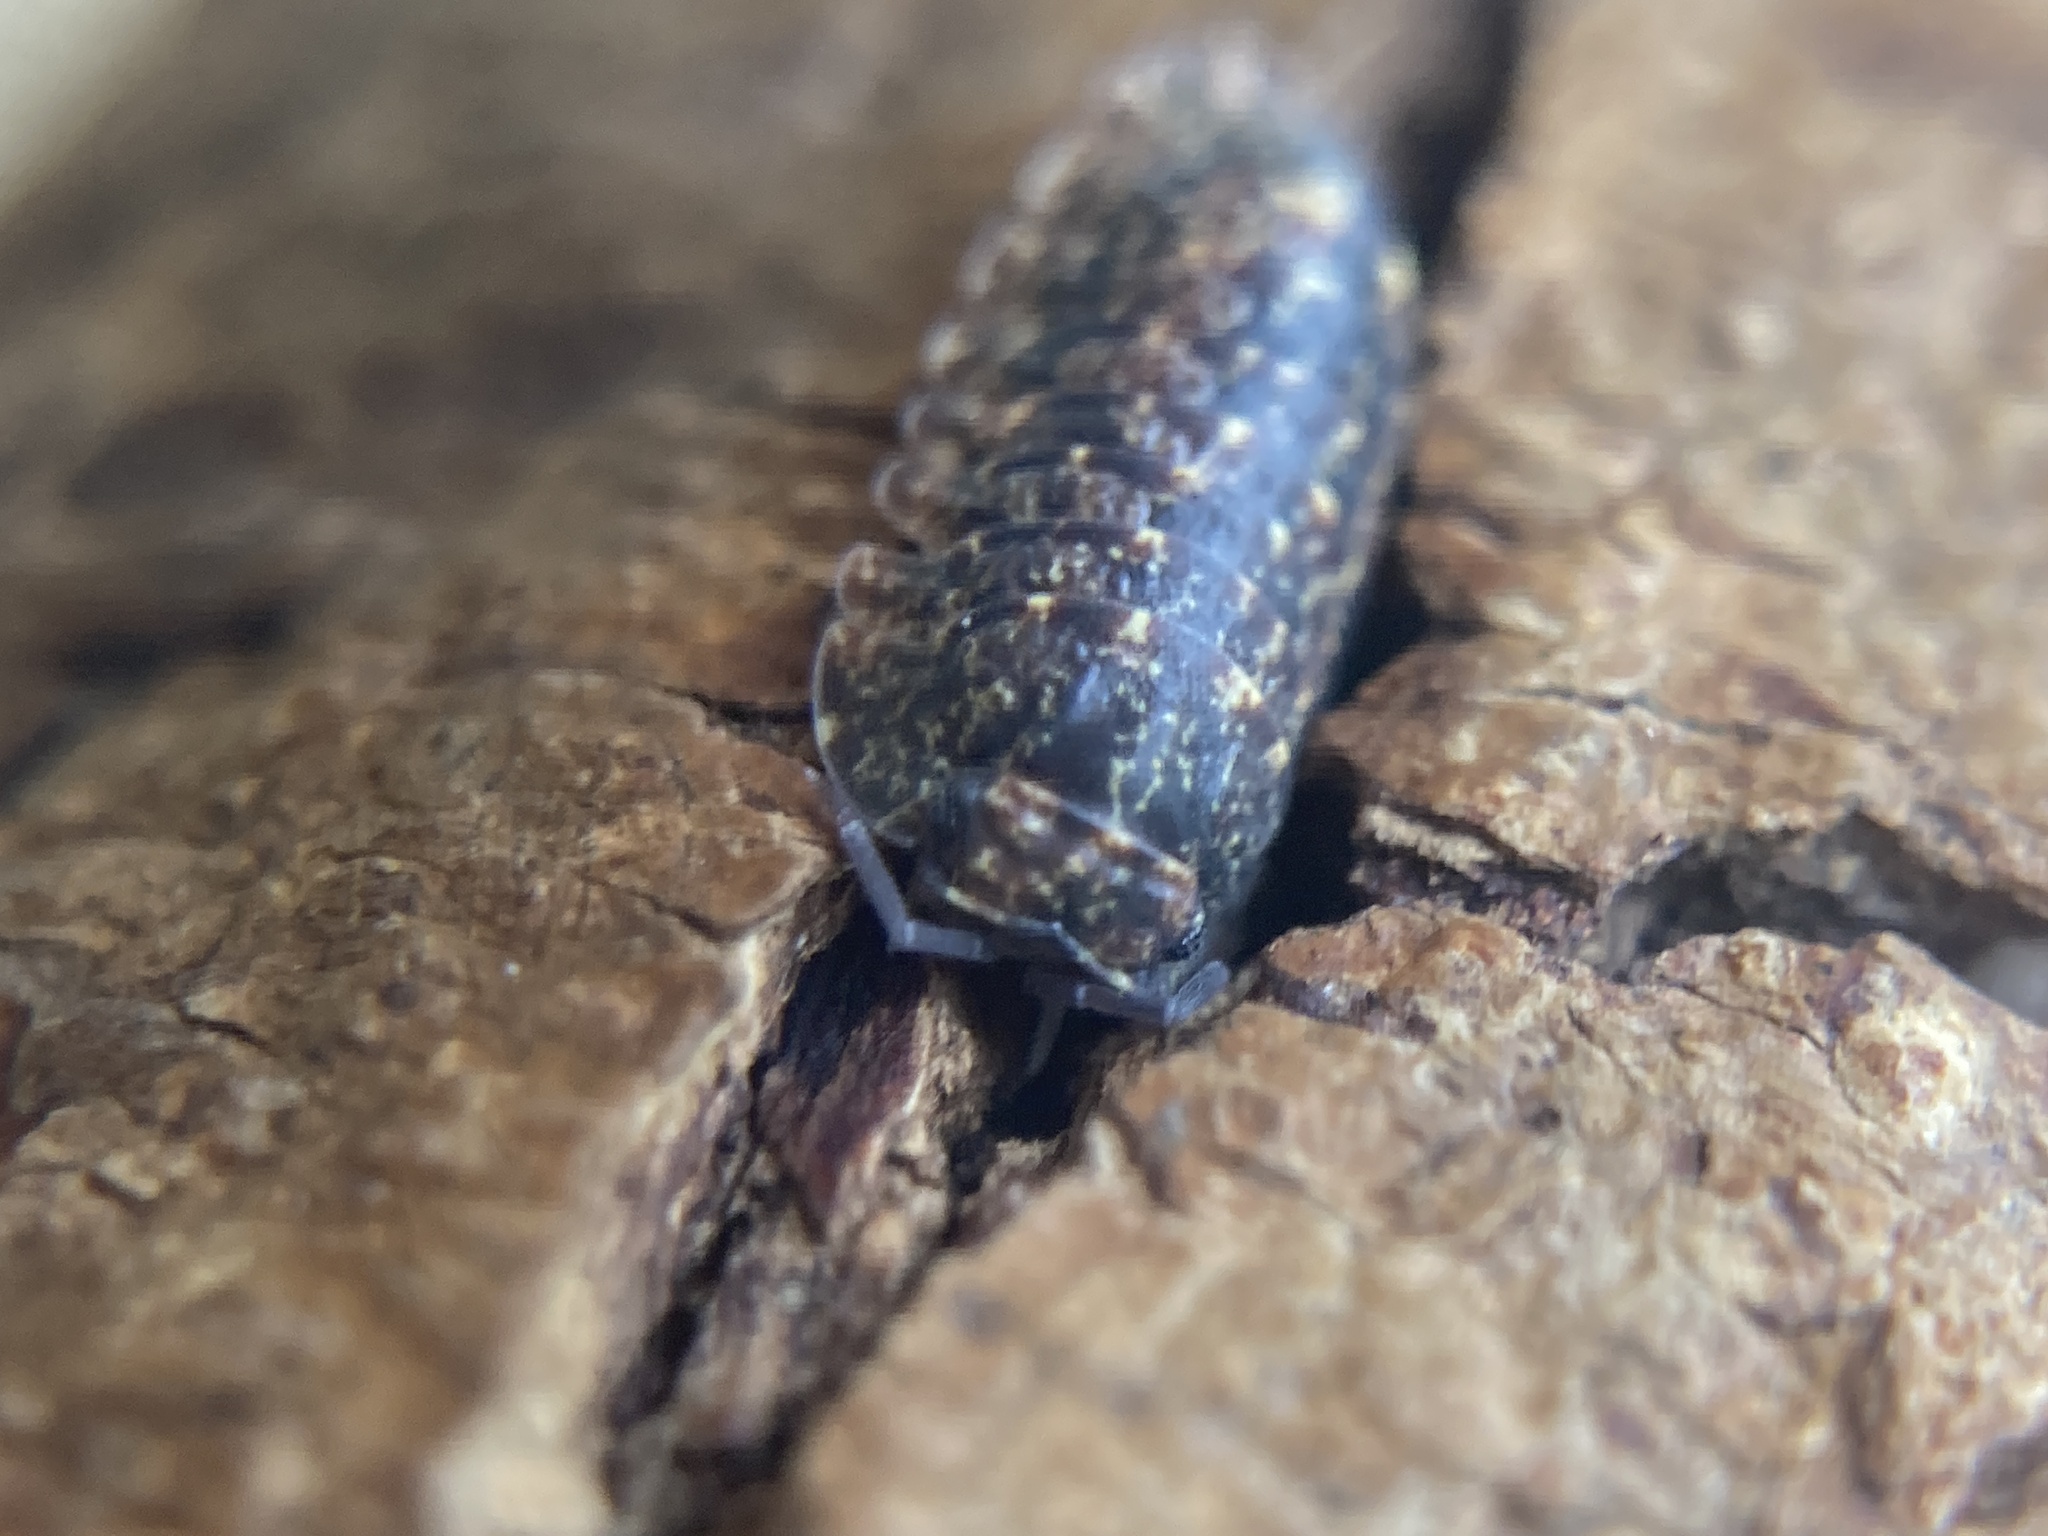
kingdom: Animalia
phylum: Arthropoda
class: Malacostraca
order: Isopoda
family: Armadillidae
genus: Merulana
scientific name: Merulana helmsiana
